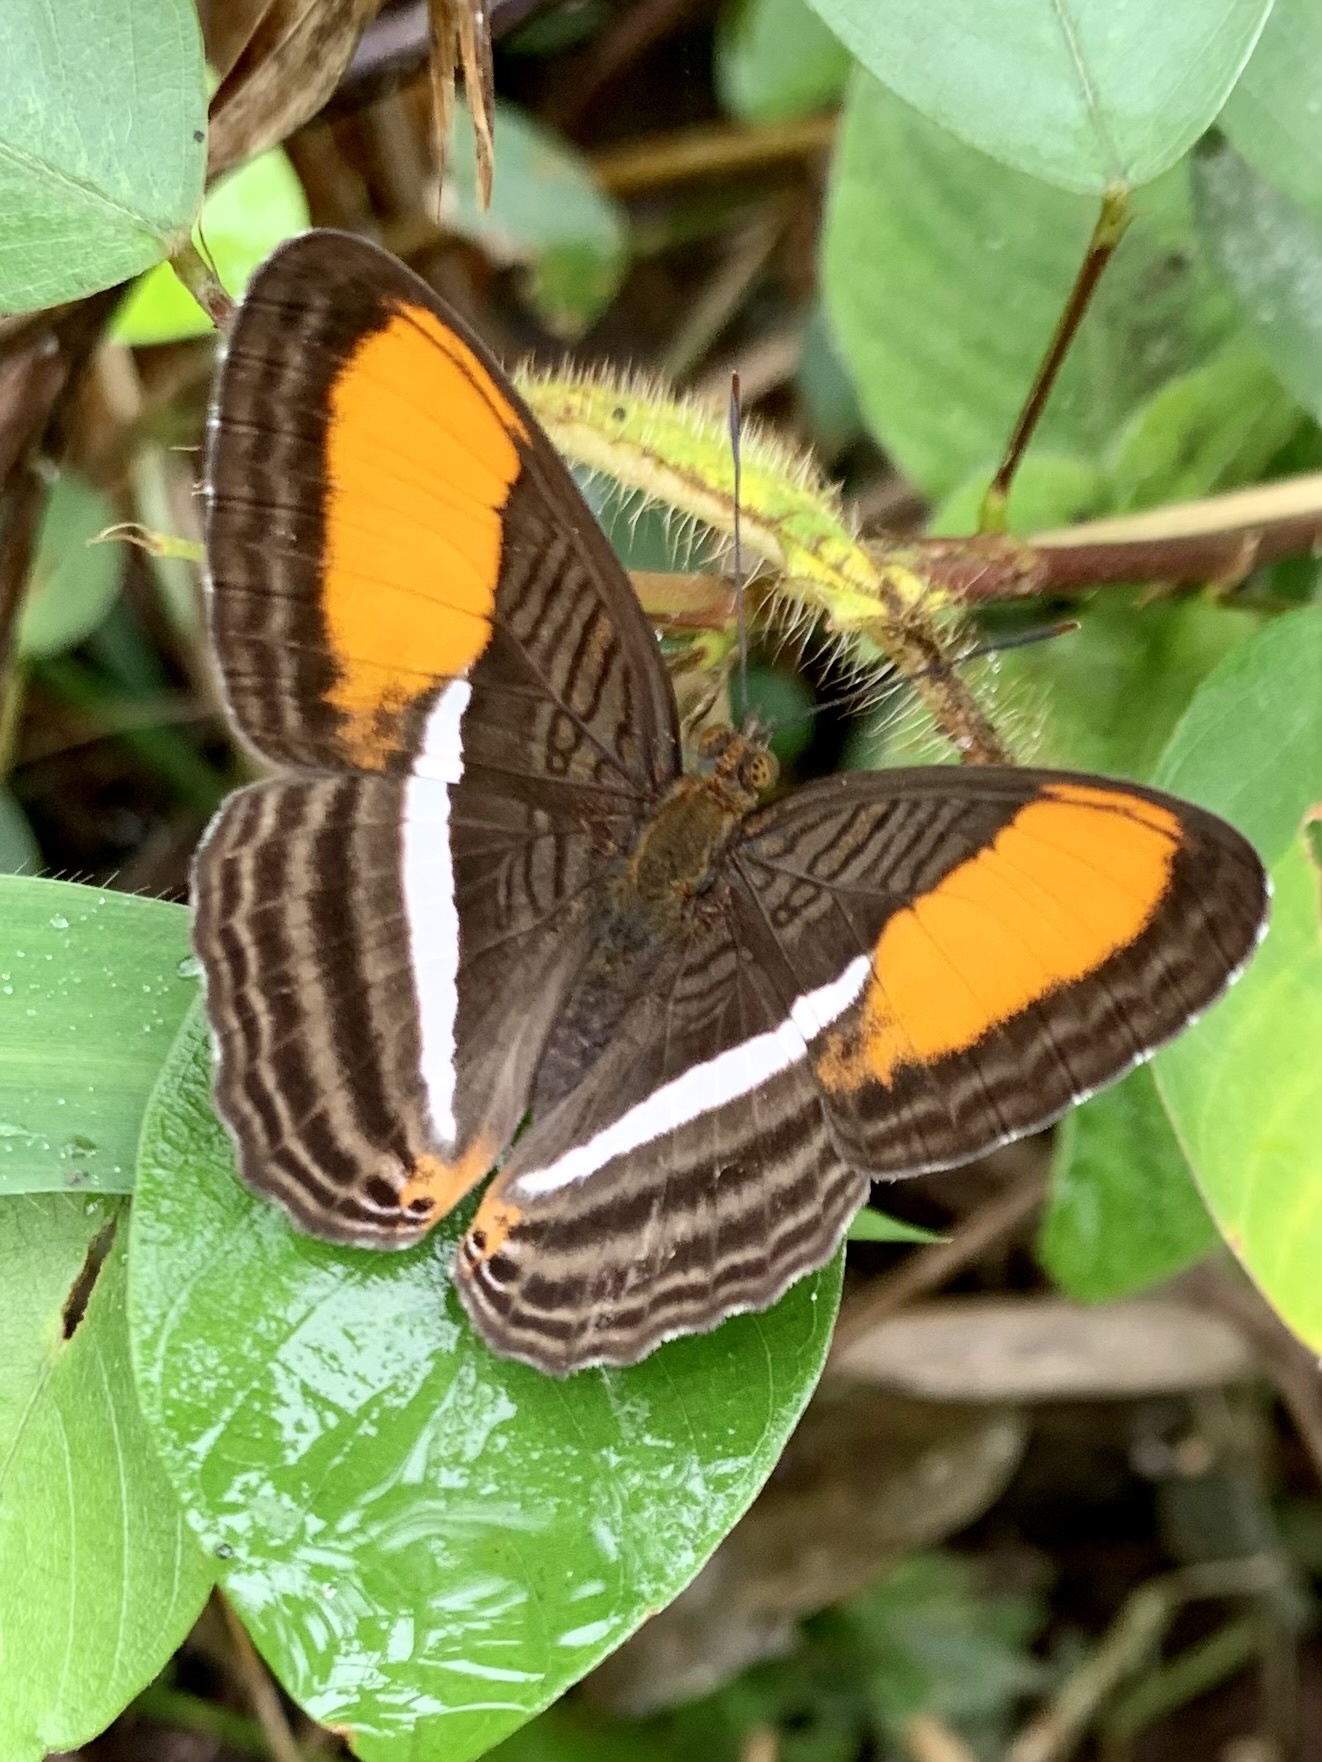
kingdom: Animalia
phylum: Arthropoda
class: Insecta
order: Lepidoptera
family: Nymphalidae
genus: Limenitis
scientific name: Limenitis cytherea
